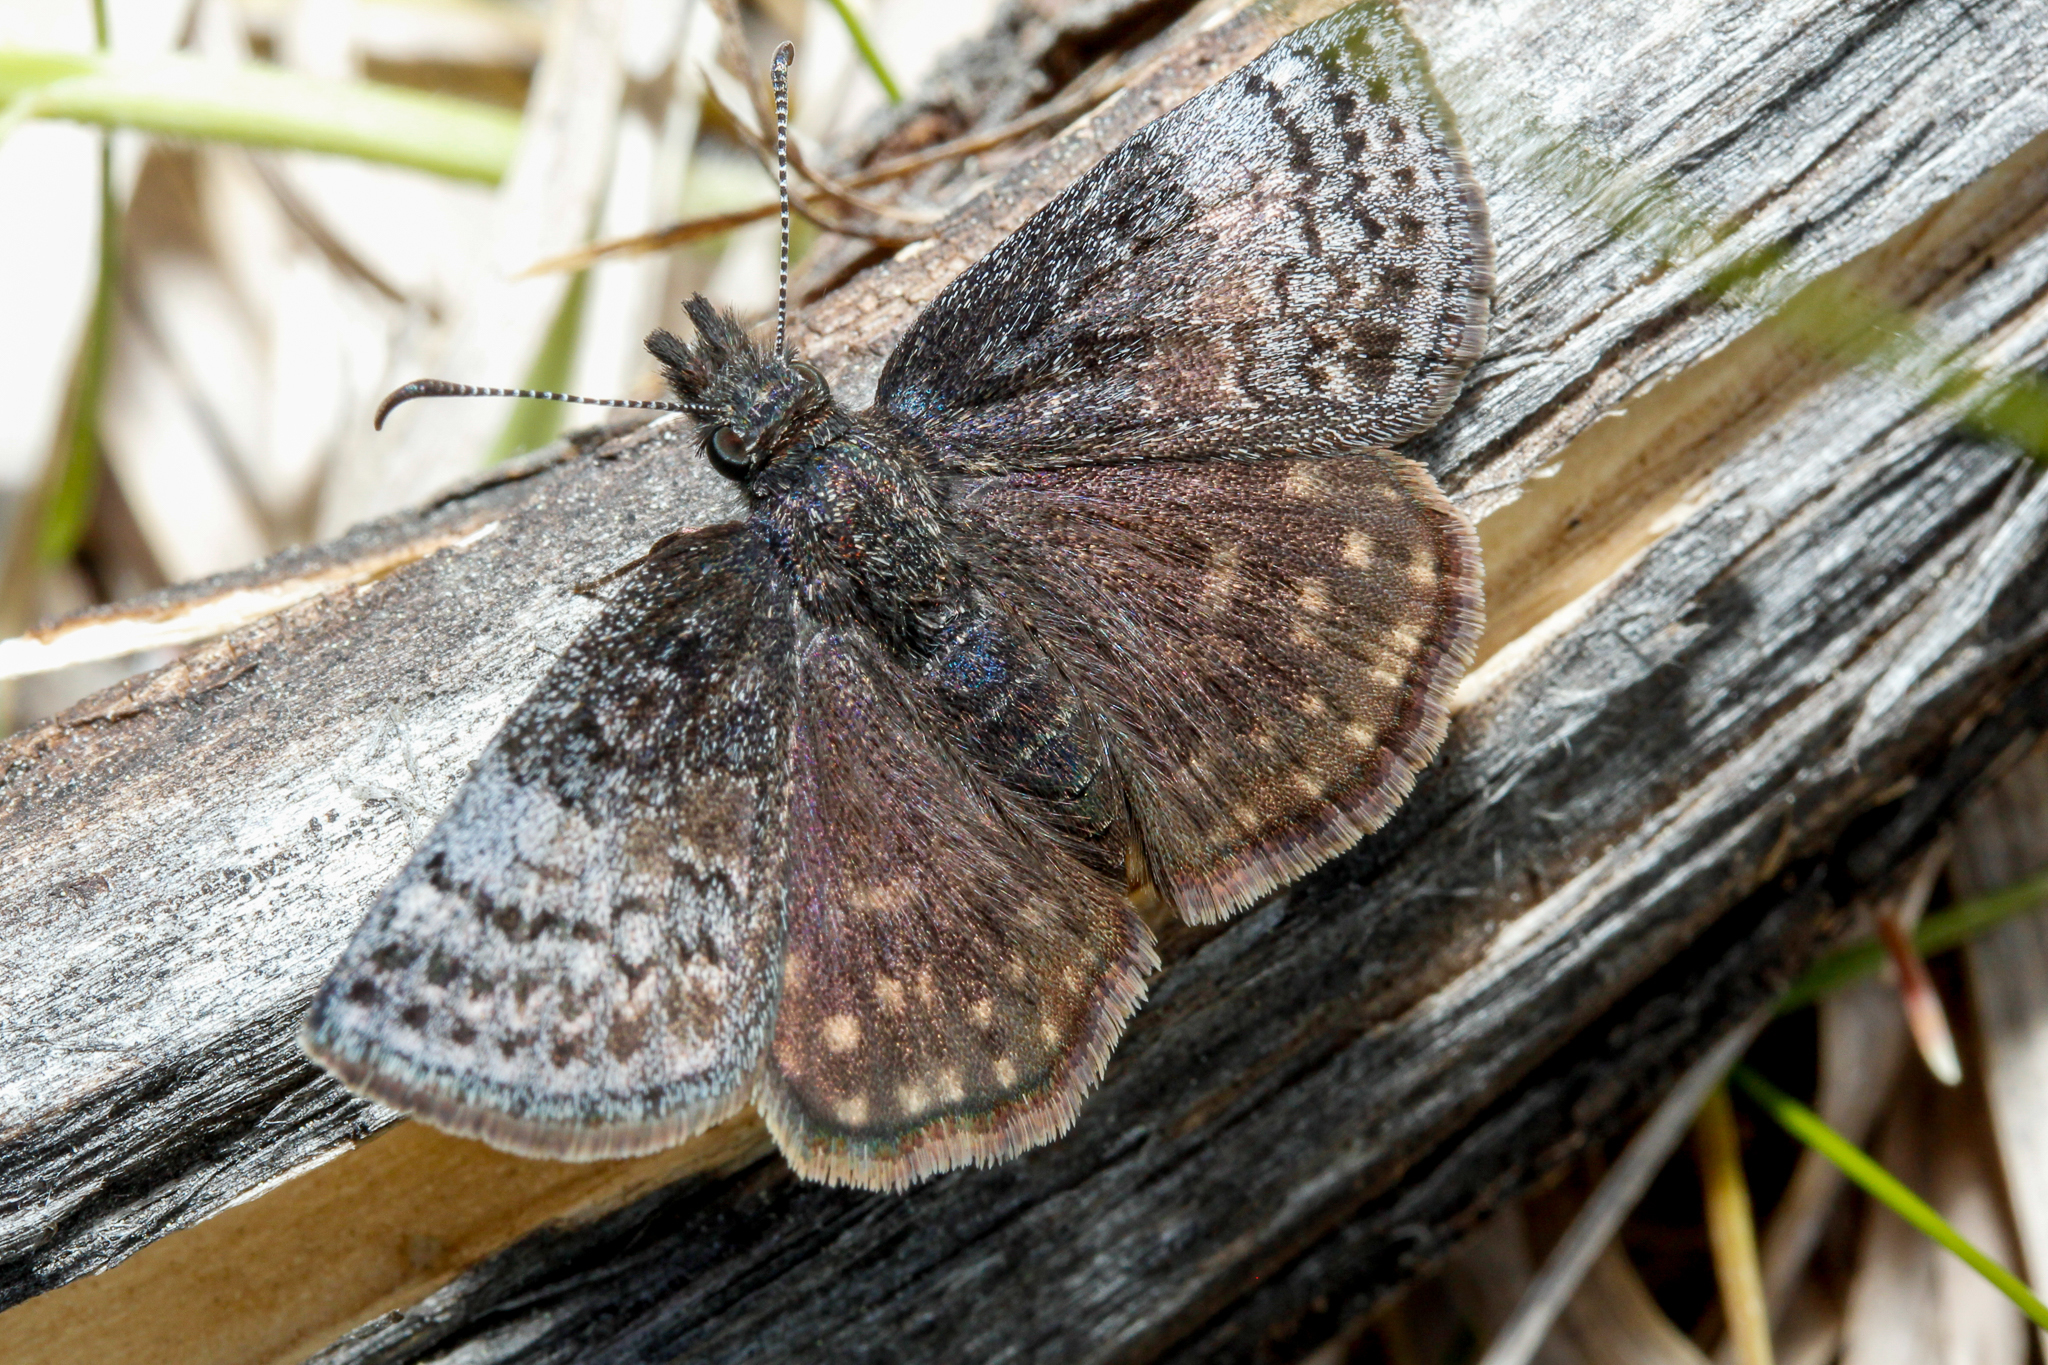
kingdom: Animalia
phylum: Arthropoda
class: Insecta
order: Lepidoptera
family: Hesperiidae
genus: Erynnis
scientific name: Erynnis icelus
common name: Dreamy duskywing
